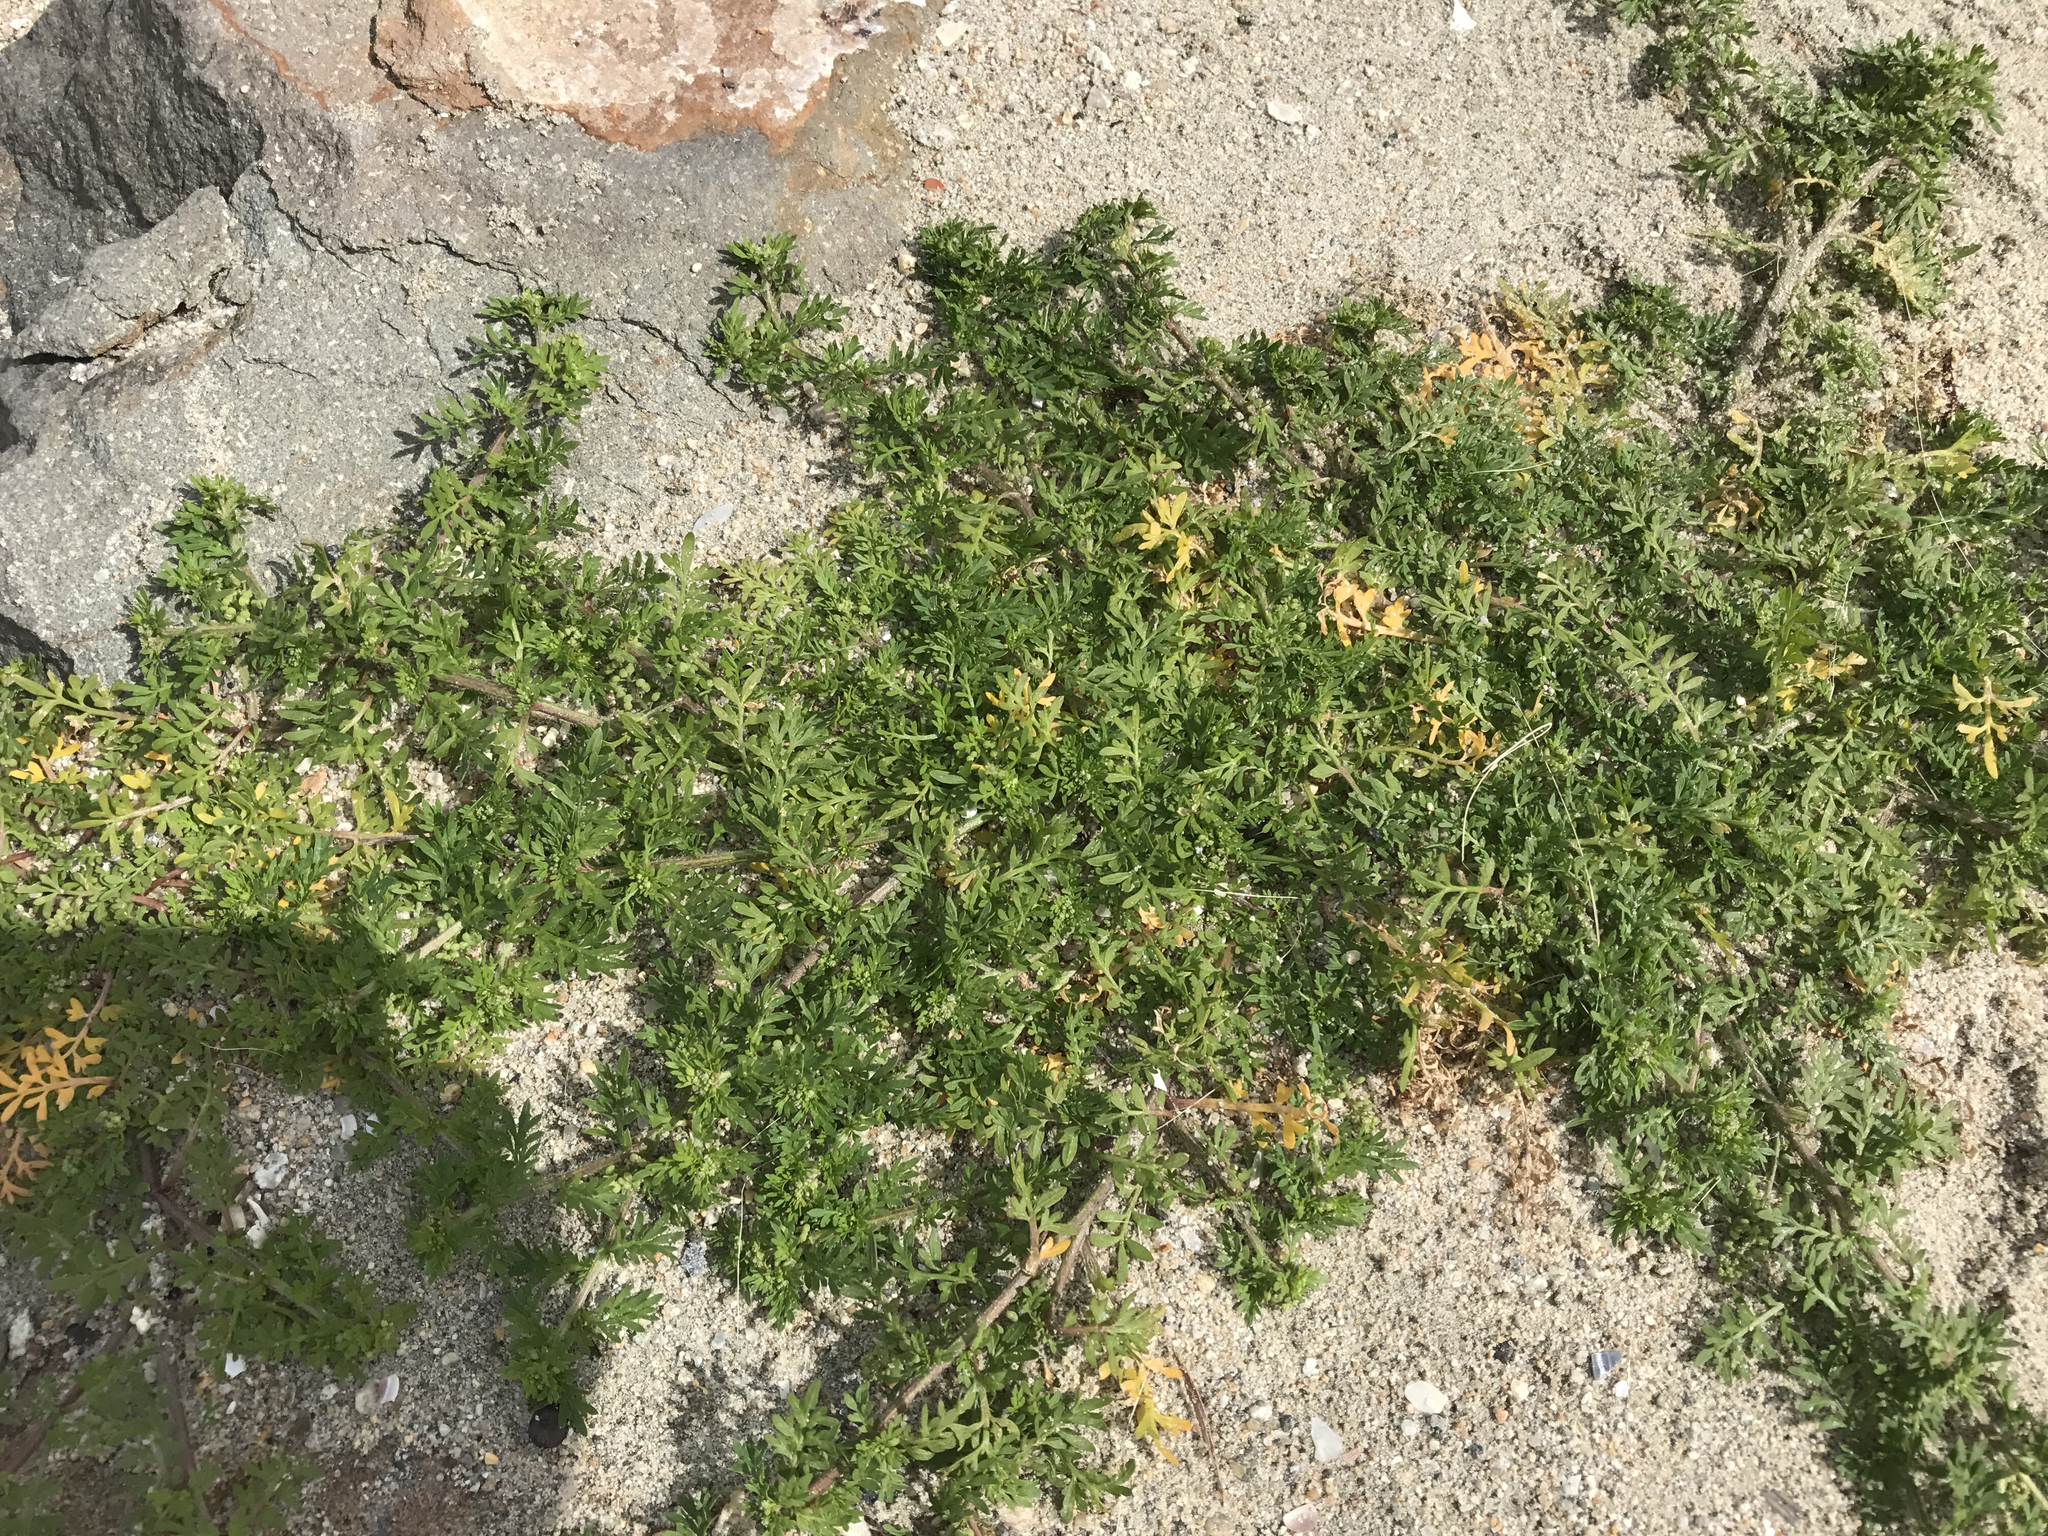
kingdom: Plantae
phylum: Tracheophyta
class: Magnoliopsida
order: Brassicales
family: Brassicaceae
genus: Lepidium
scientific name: Lepidium didymum
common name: Lesser swinecress
